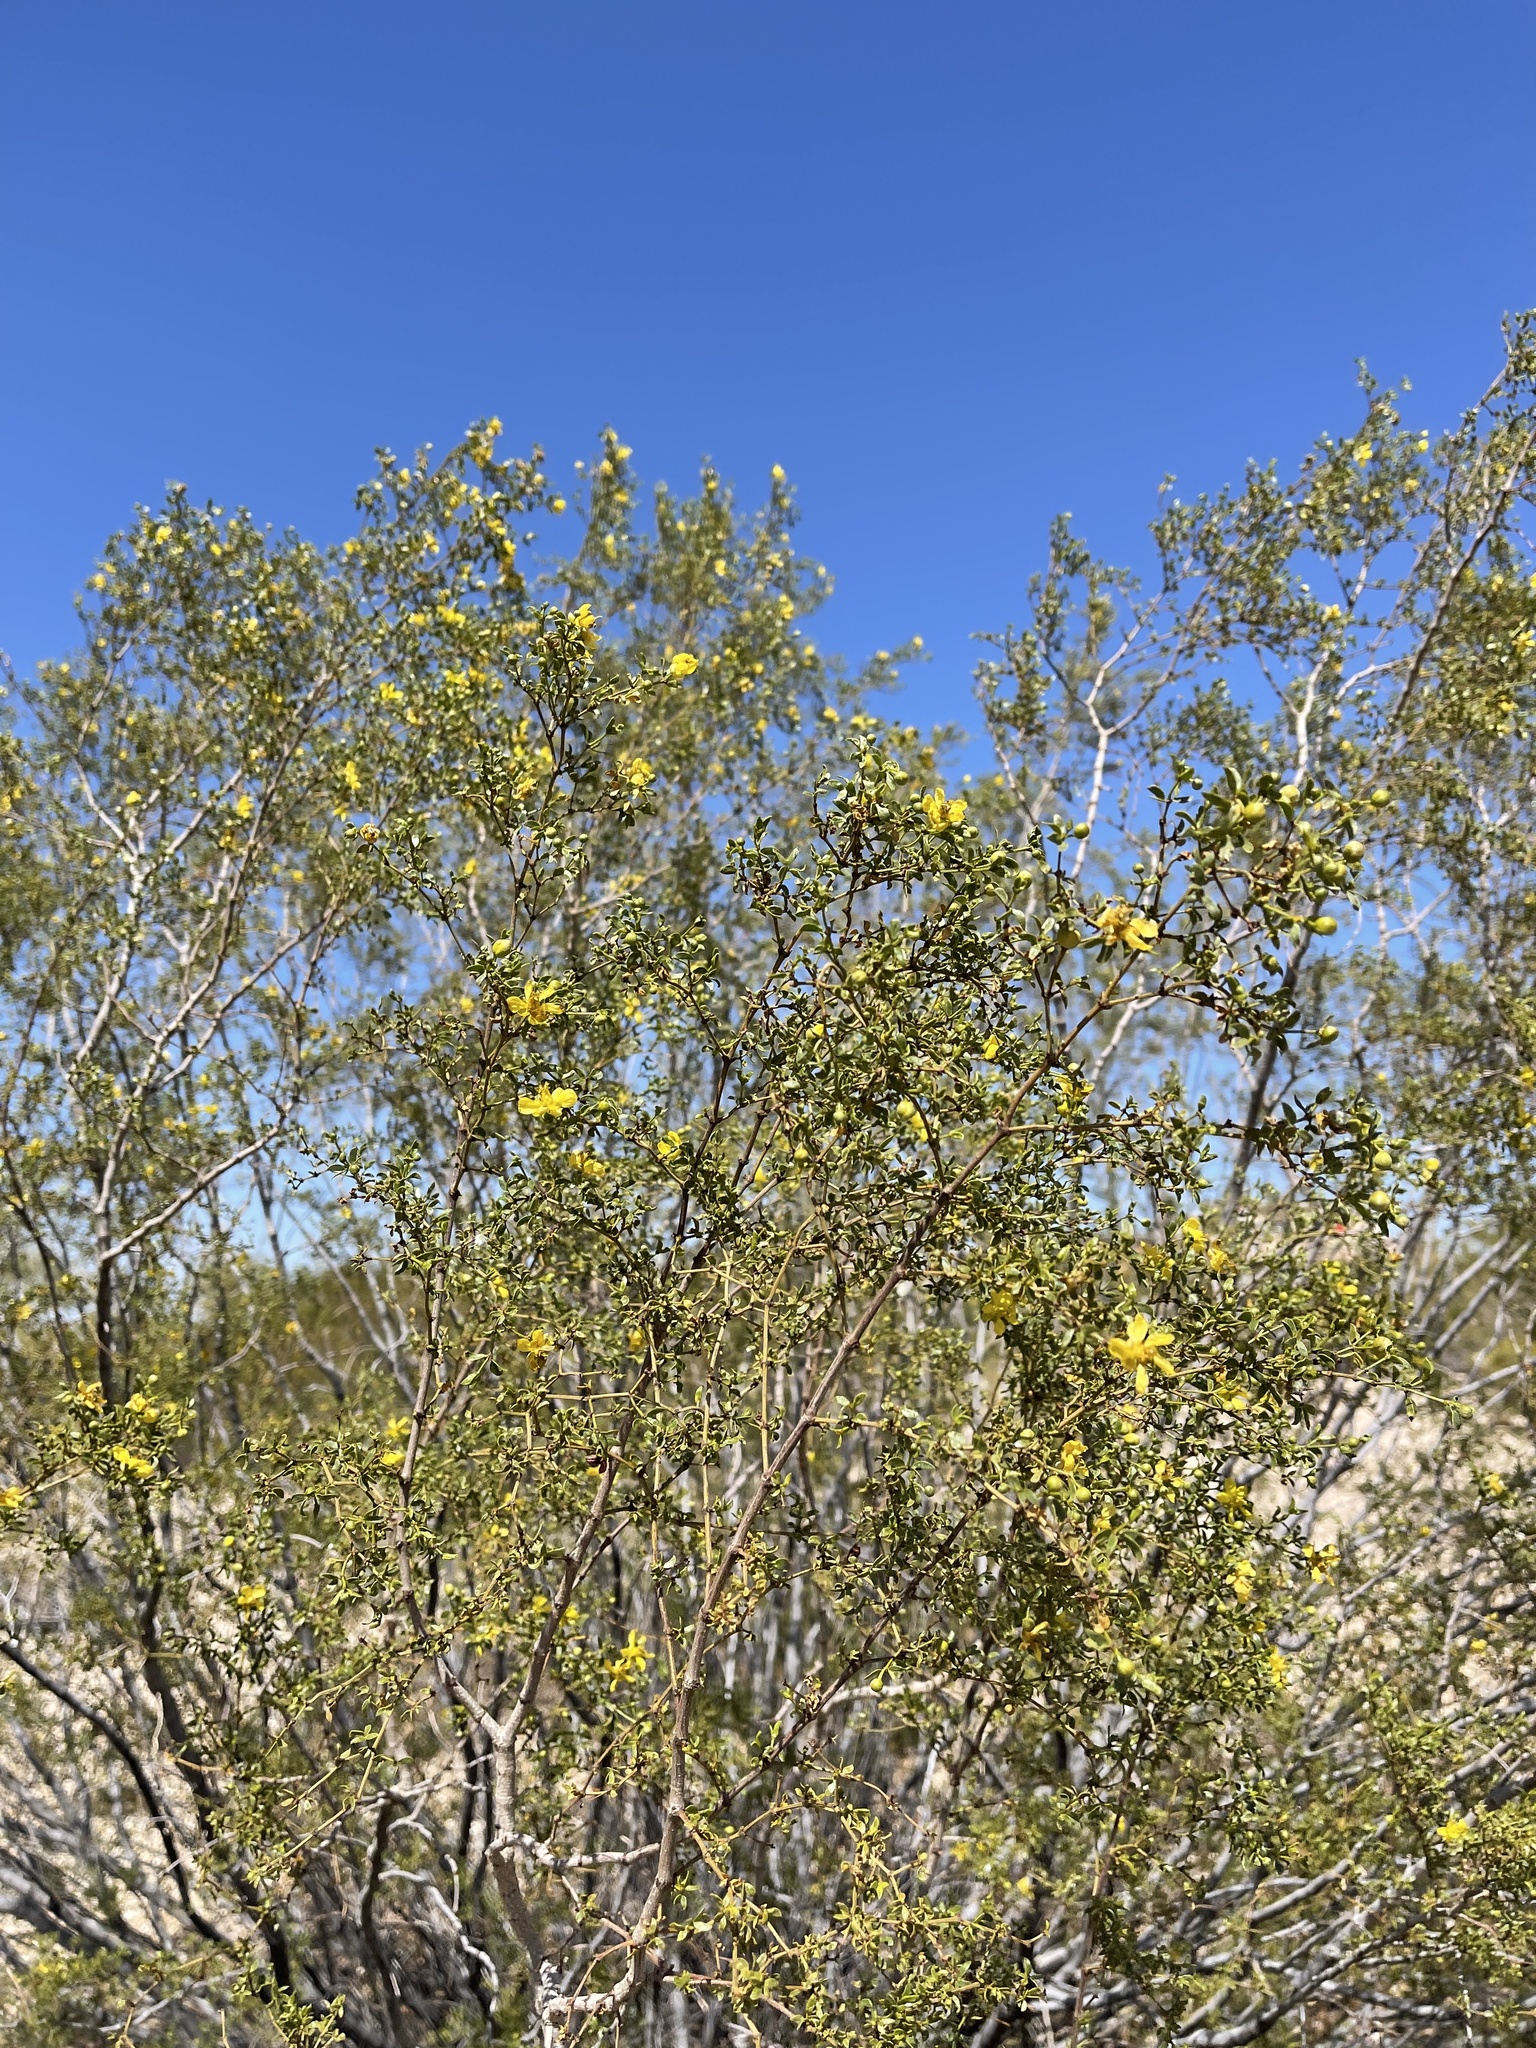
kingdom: Plantae
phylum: Tracheophyta
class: Magnoliopsida
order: Zygophyllales
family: Zygophyllaceae
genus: Larrea
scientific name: Larrea tridentata
